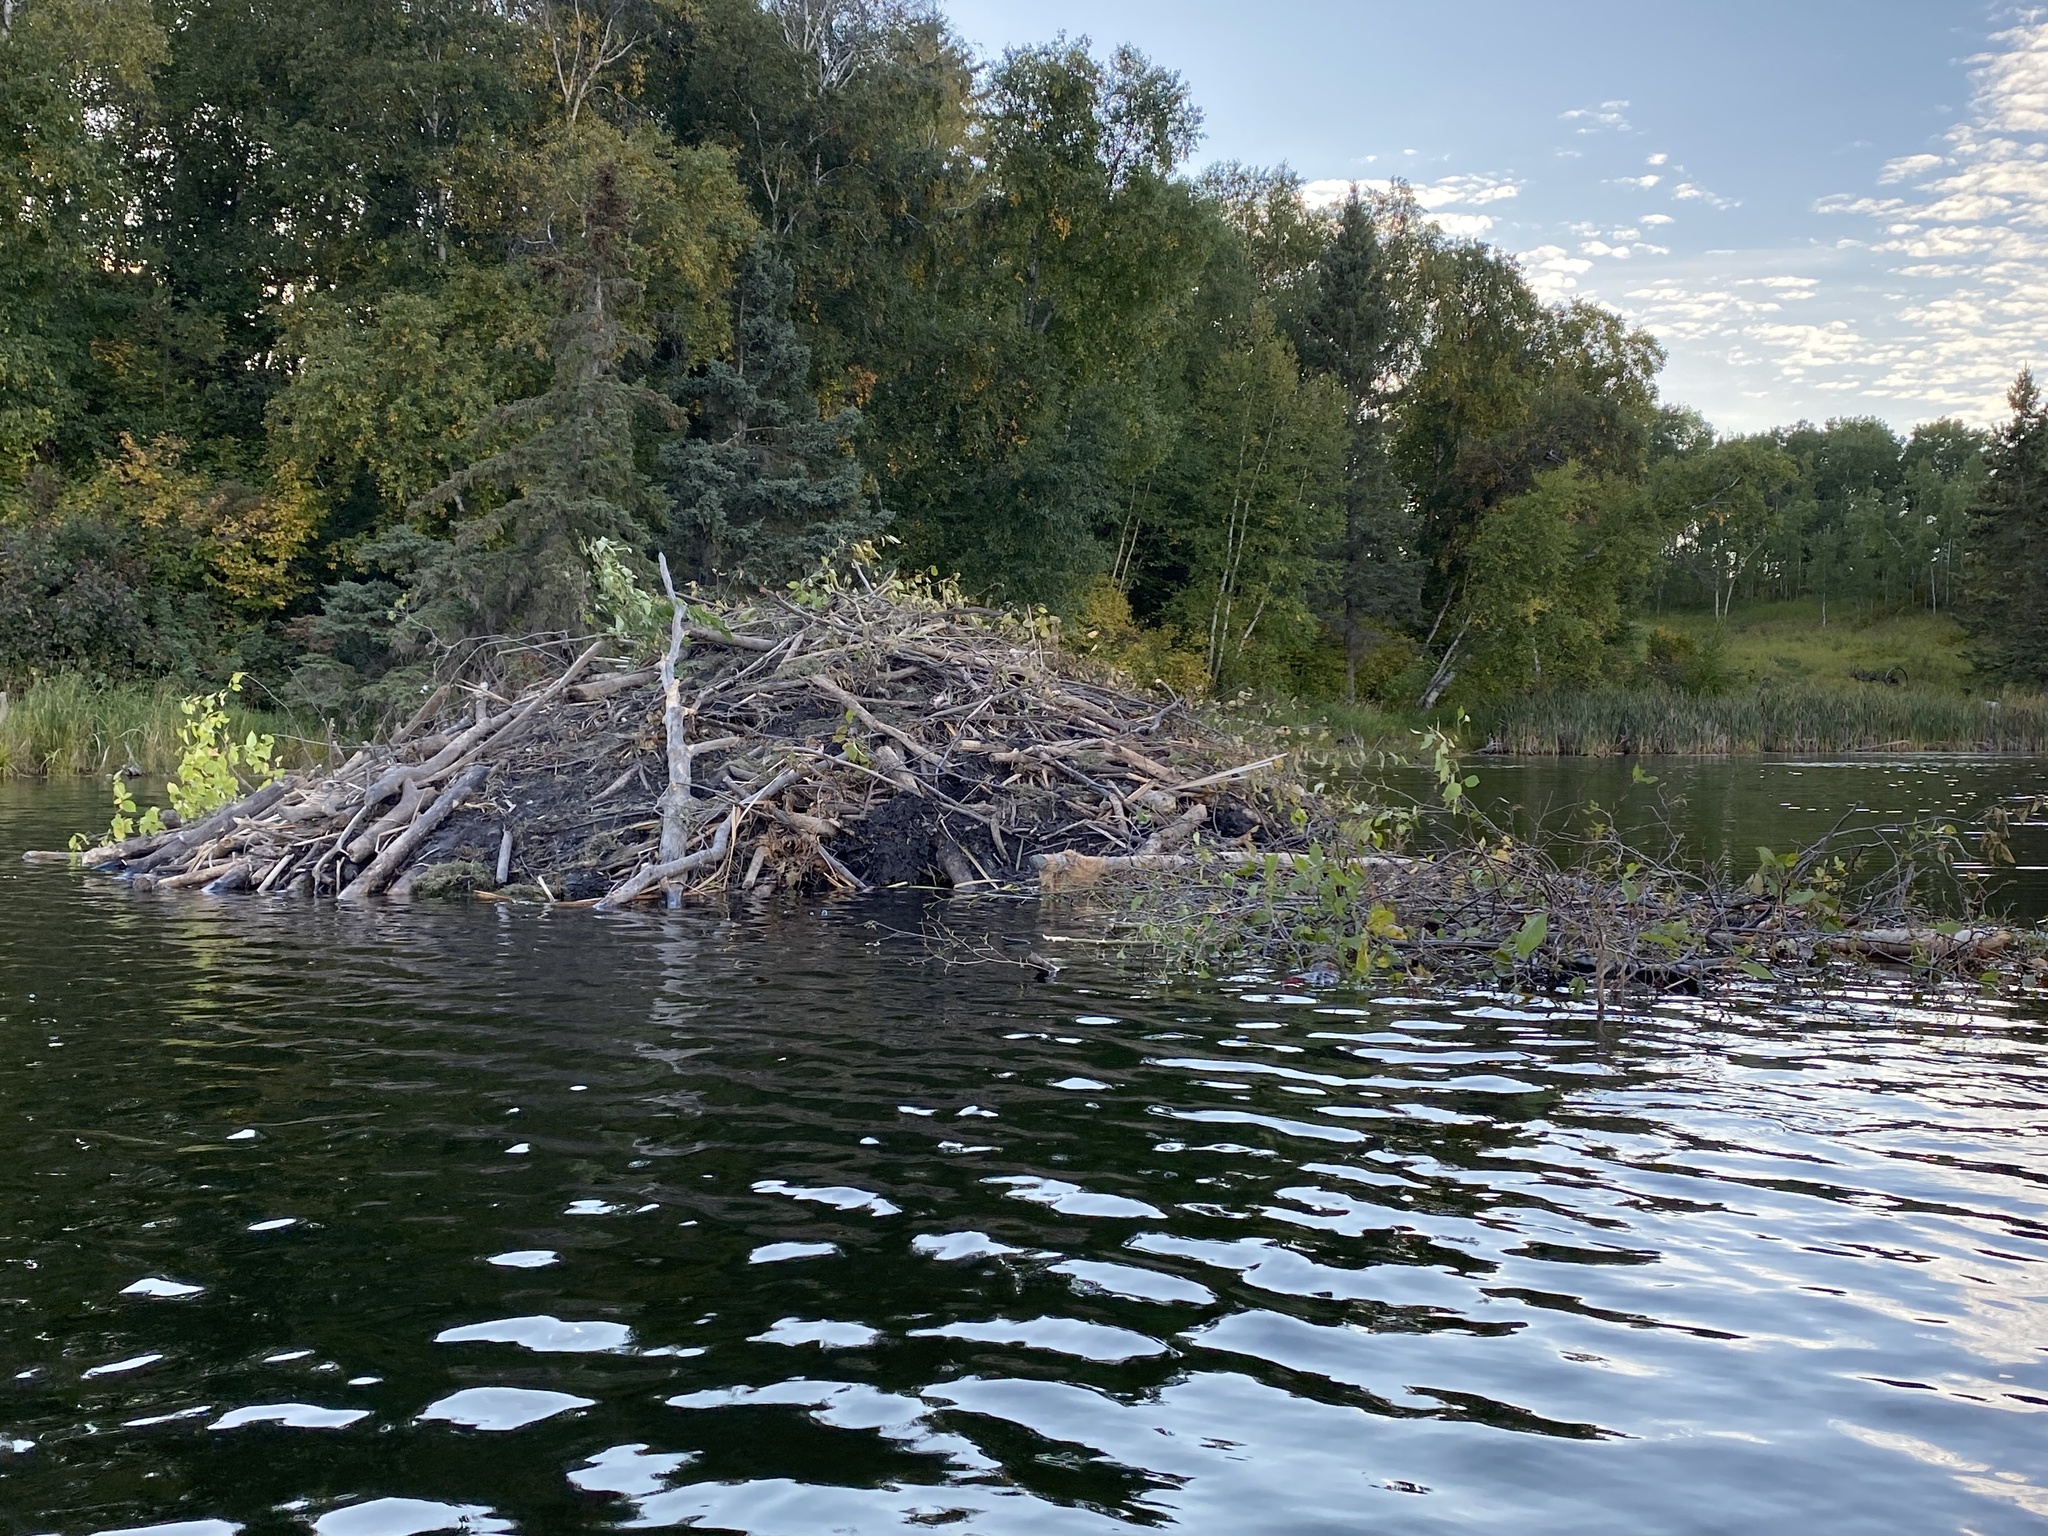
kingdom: Animalia
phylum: Chordata
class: Mammalia
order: Rodentia
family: Castoridae
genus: Castor
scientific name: Castor canadensis
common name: American beaver
